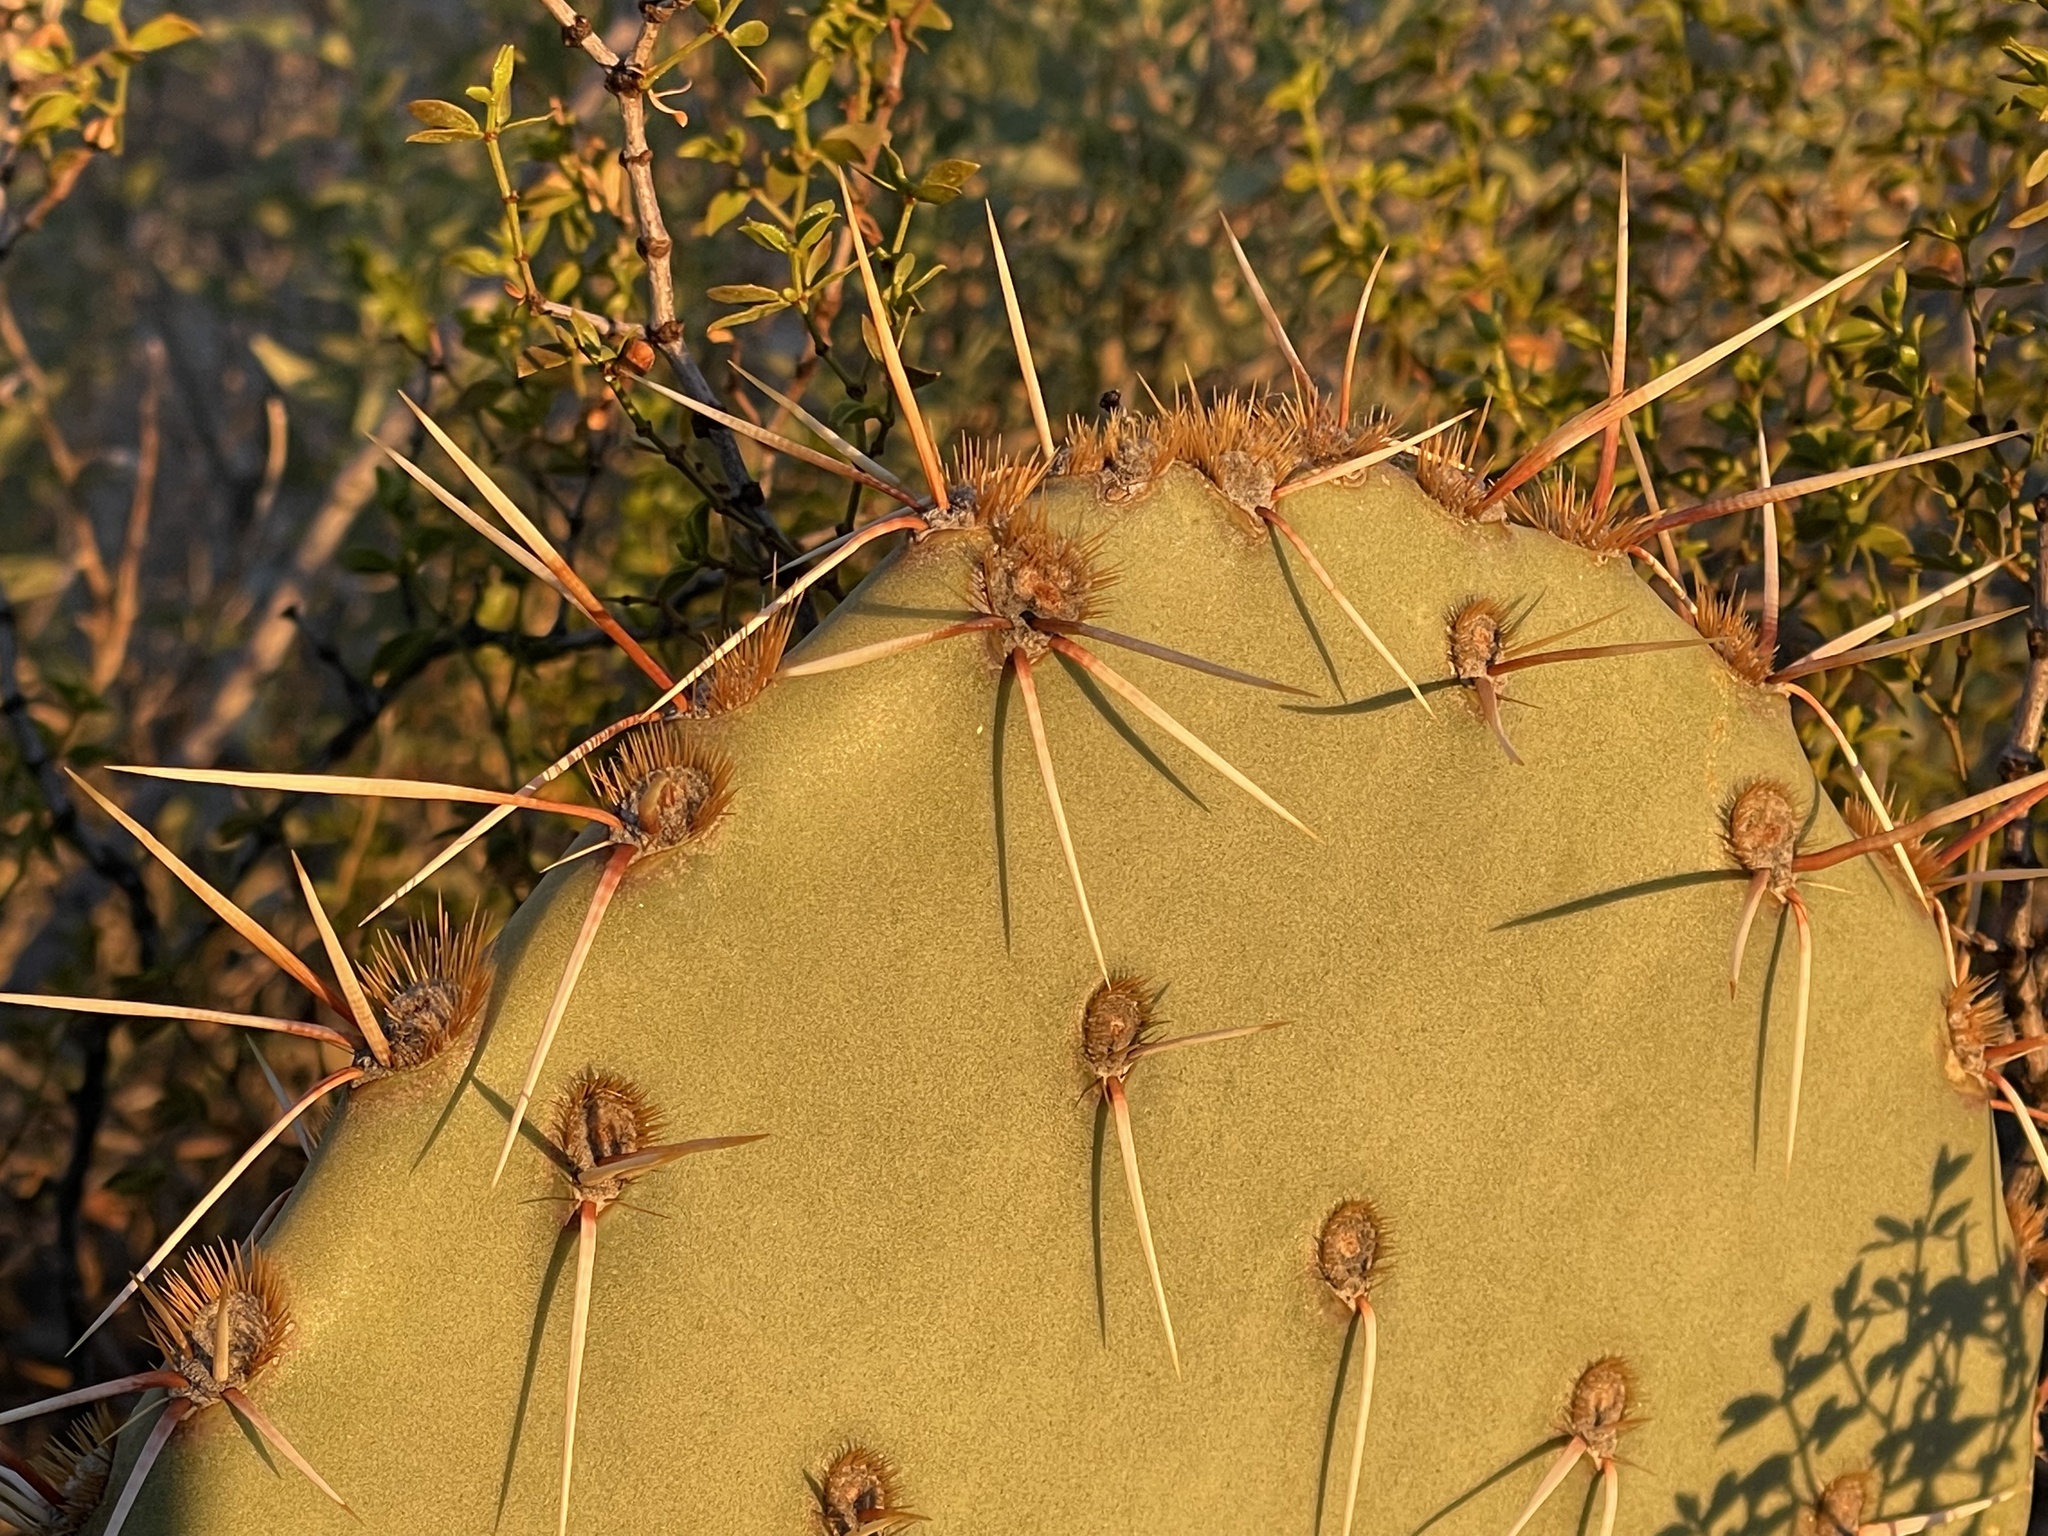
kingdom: Plantae
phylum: Tracheophyta
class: Magnoliopsida
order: Caryophyllales
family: Cactaceae
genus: Opuntia
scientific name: Opuntia engelmannii
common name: Cactus-apple
